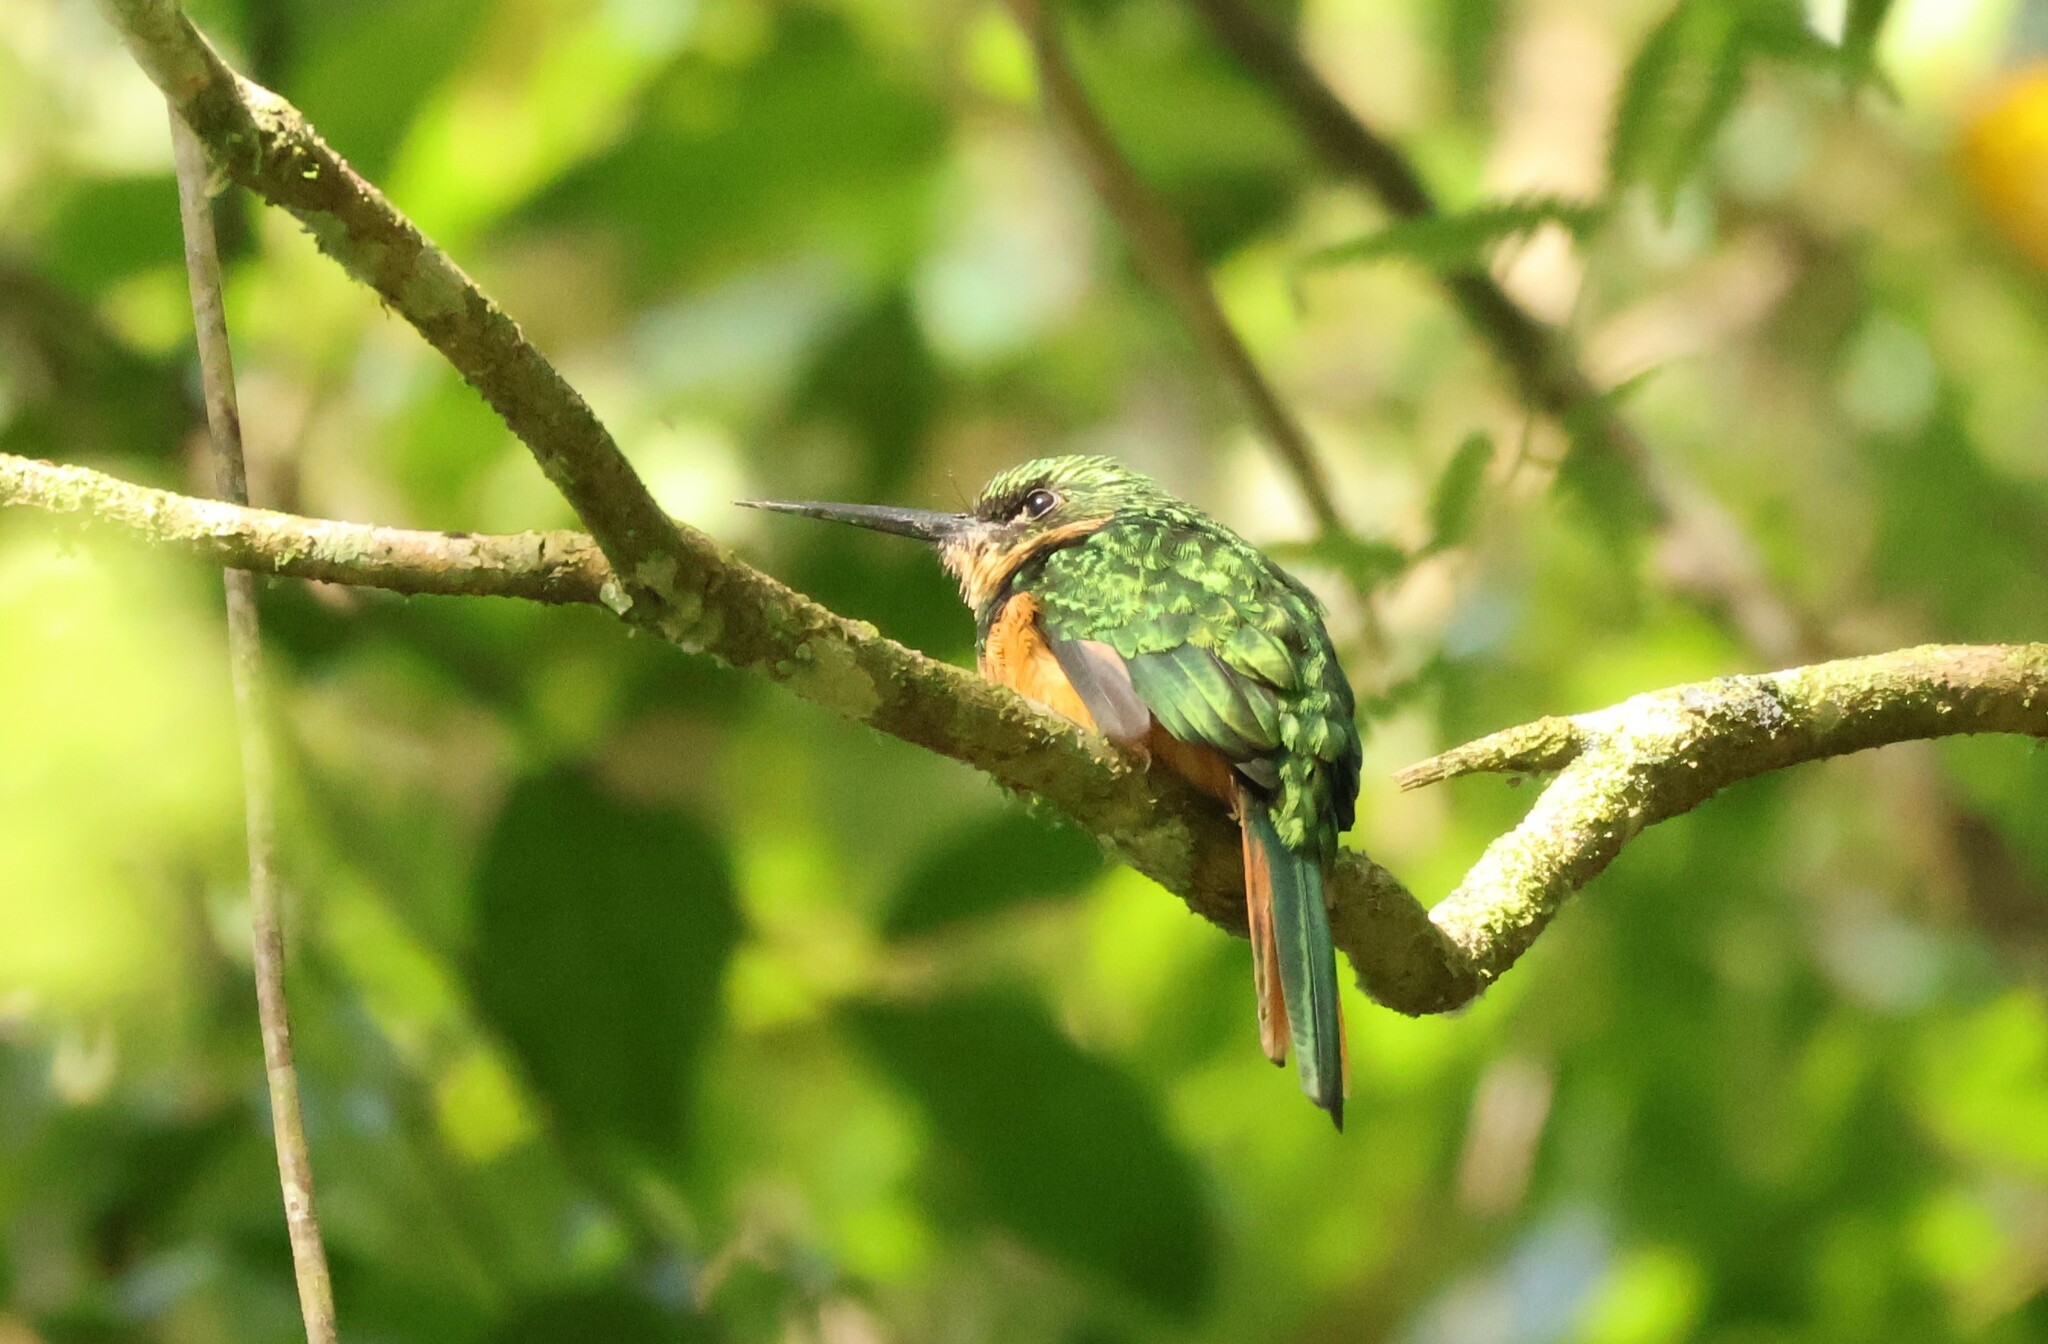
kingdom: Animalia
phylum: Chordata
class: Aves
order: Piciformes
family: Galbulidae
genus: Galbula
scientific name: Galbula ruficauda
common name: Rufous-tailed jacamar
